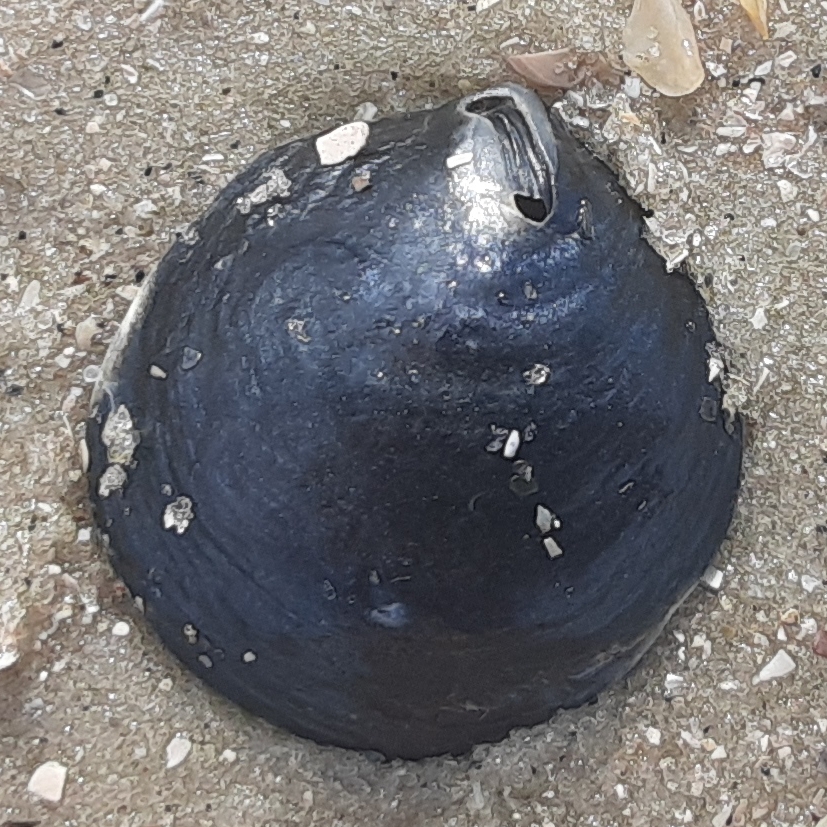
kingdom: Animalia
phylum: Mollusca
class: Bivalvia
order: Pectinida
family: Anomiidae
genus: Anomia
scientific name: Anomia simplex
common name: Common jingle shell
